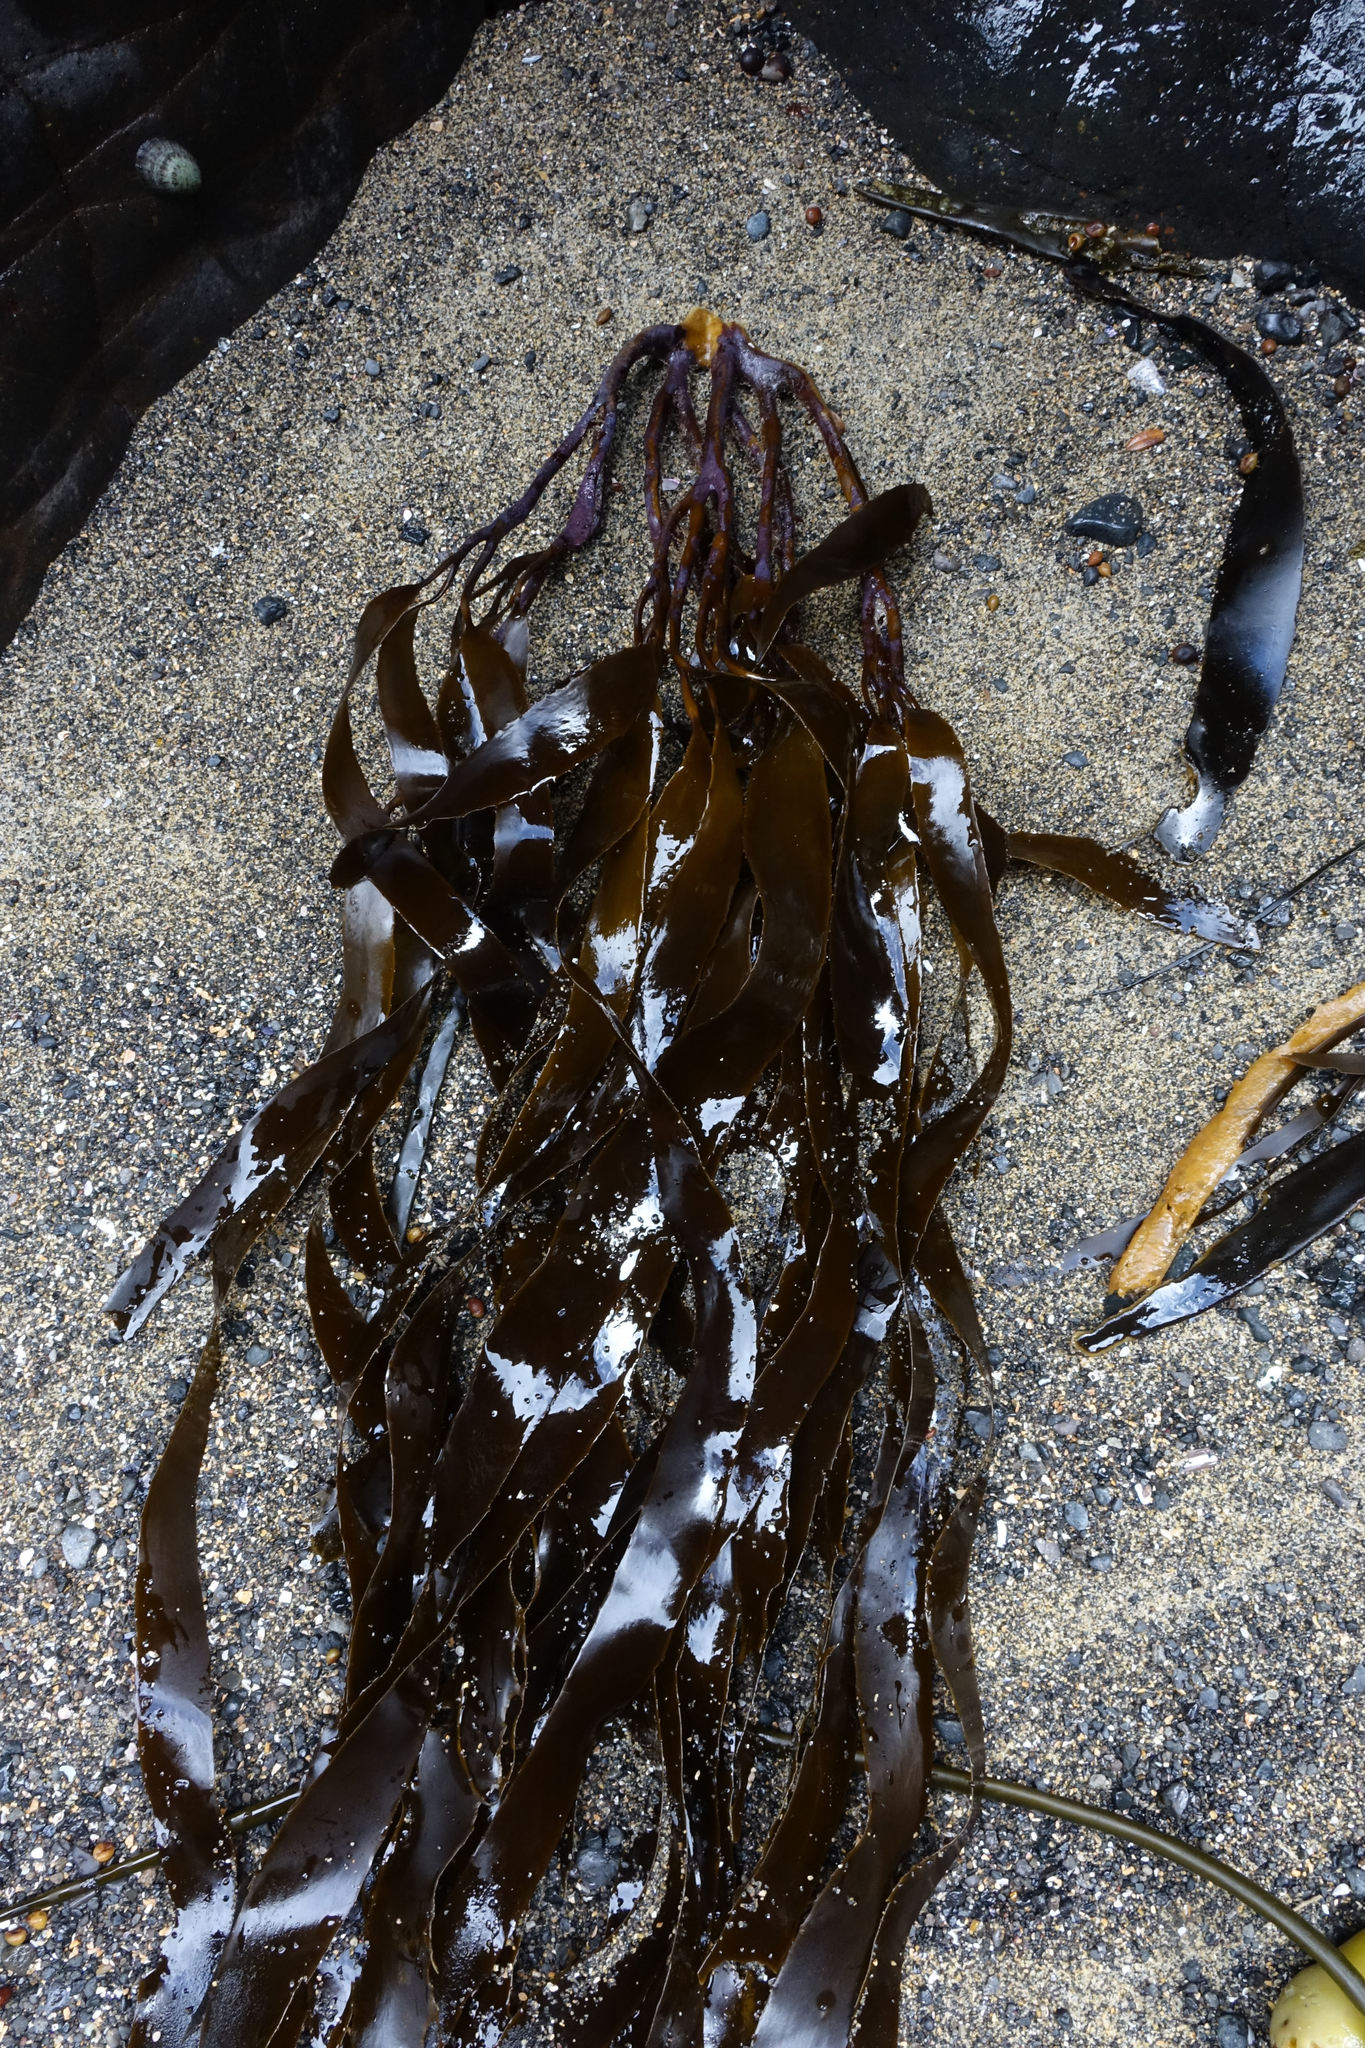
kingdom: Chromista
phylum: Ochrophyta
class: Phaeophyceae
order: Laminariales
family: Lessoniaceae
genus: Lessonia
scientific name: Lessonia
